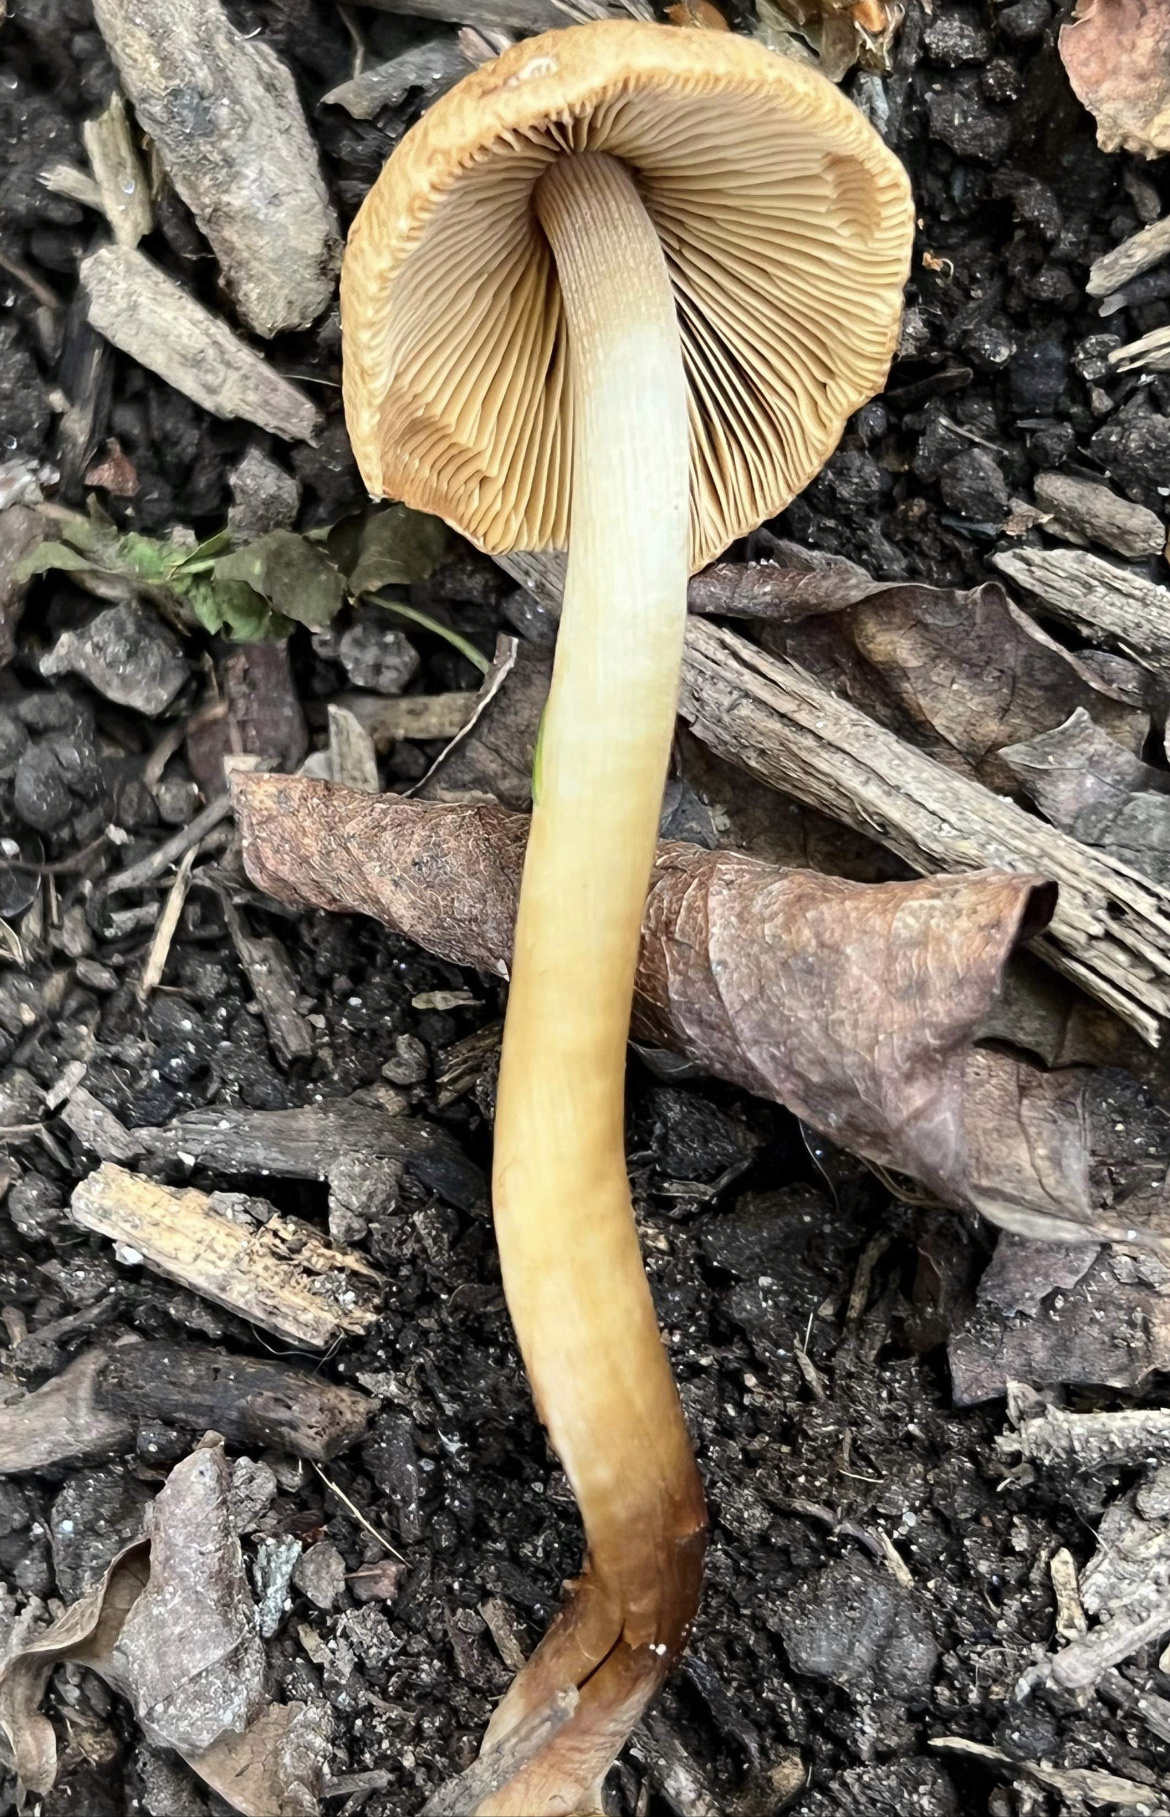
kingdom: Fungi
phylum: Basidiomycota
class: Agaricomycetes
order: Agaricales
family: Strophariaceae
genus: Agrocybe
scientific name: Agrocybe retigera
